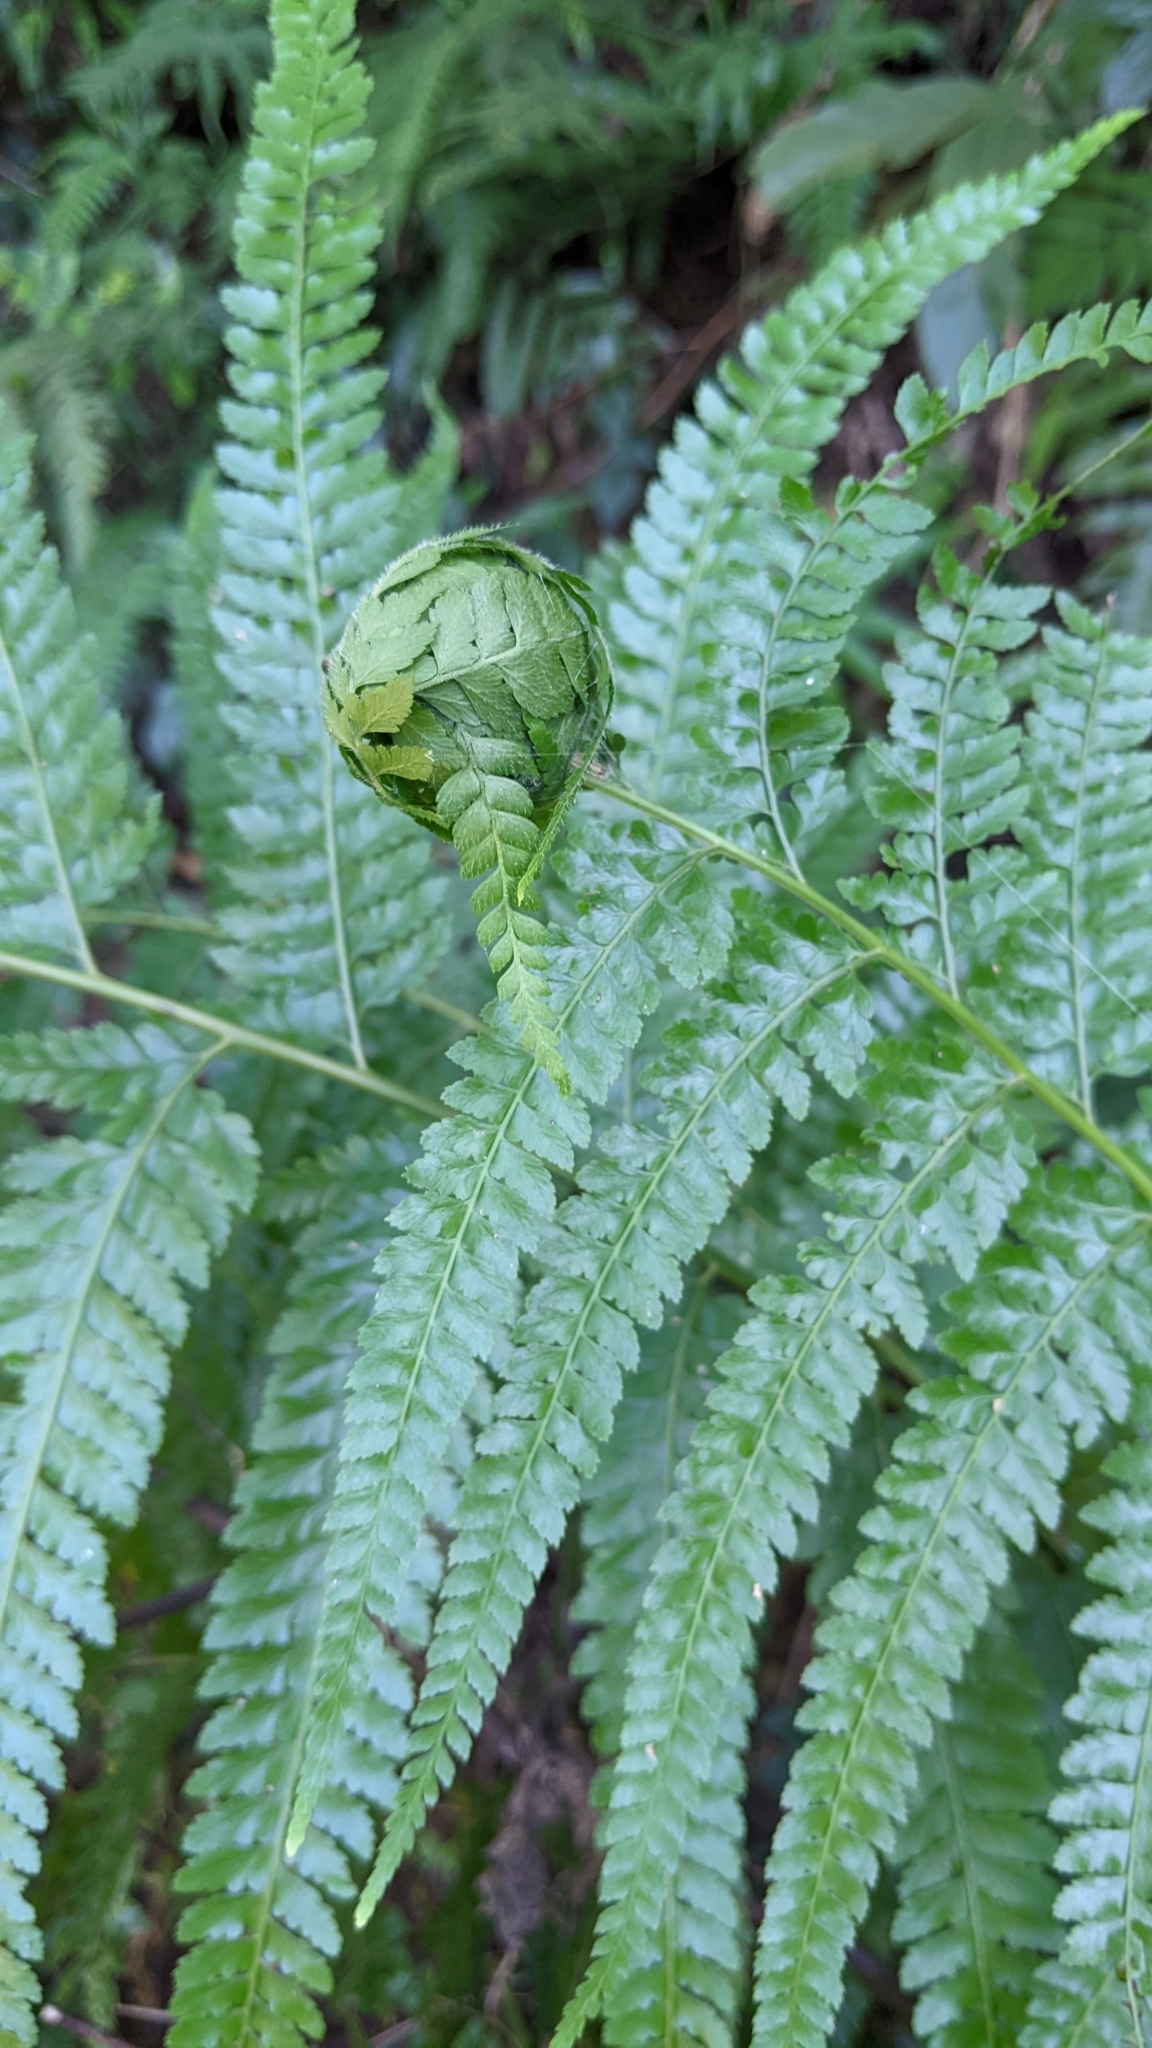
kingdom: Plantae
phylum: Tracheophyta
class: Polypodiopsida
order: Polypodiales
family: Dennstaedtiaceae
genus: Microlepia
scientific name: Microlepia strigosa
